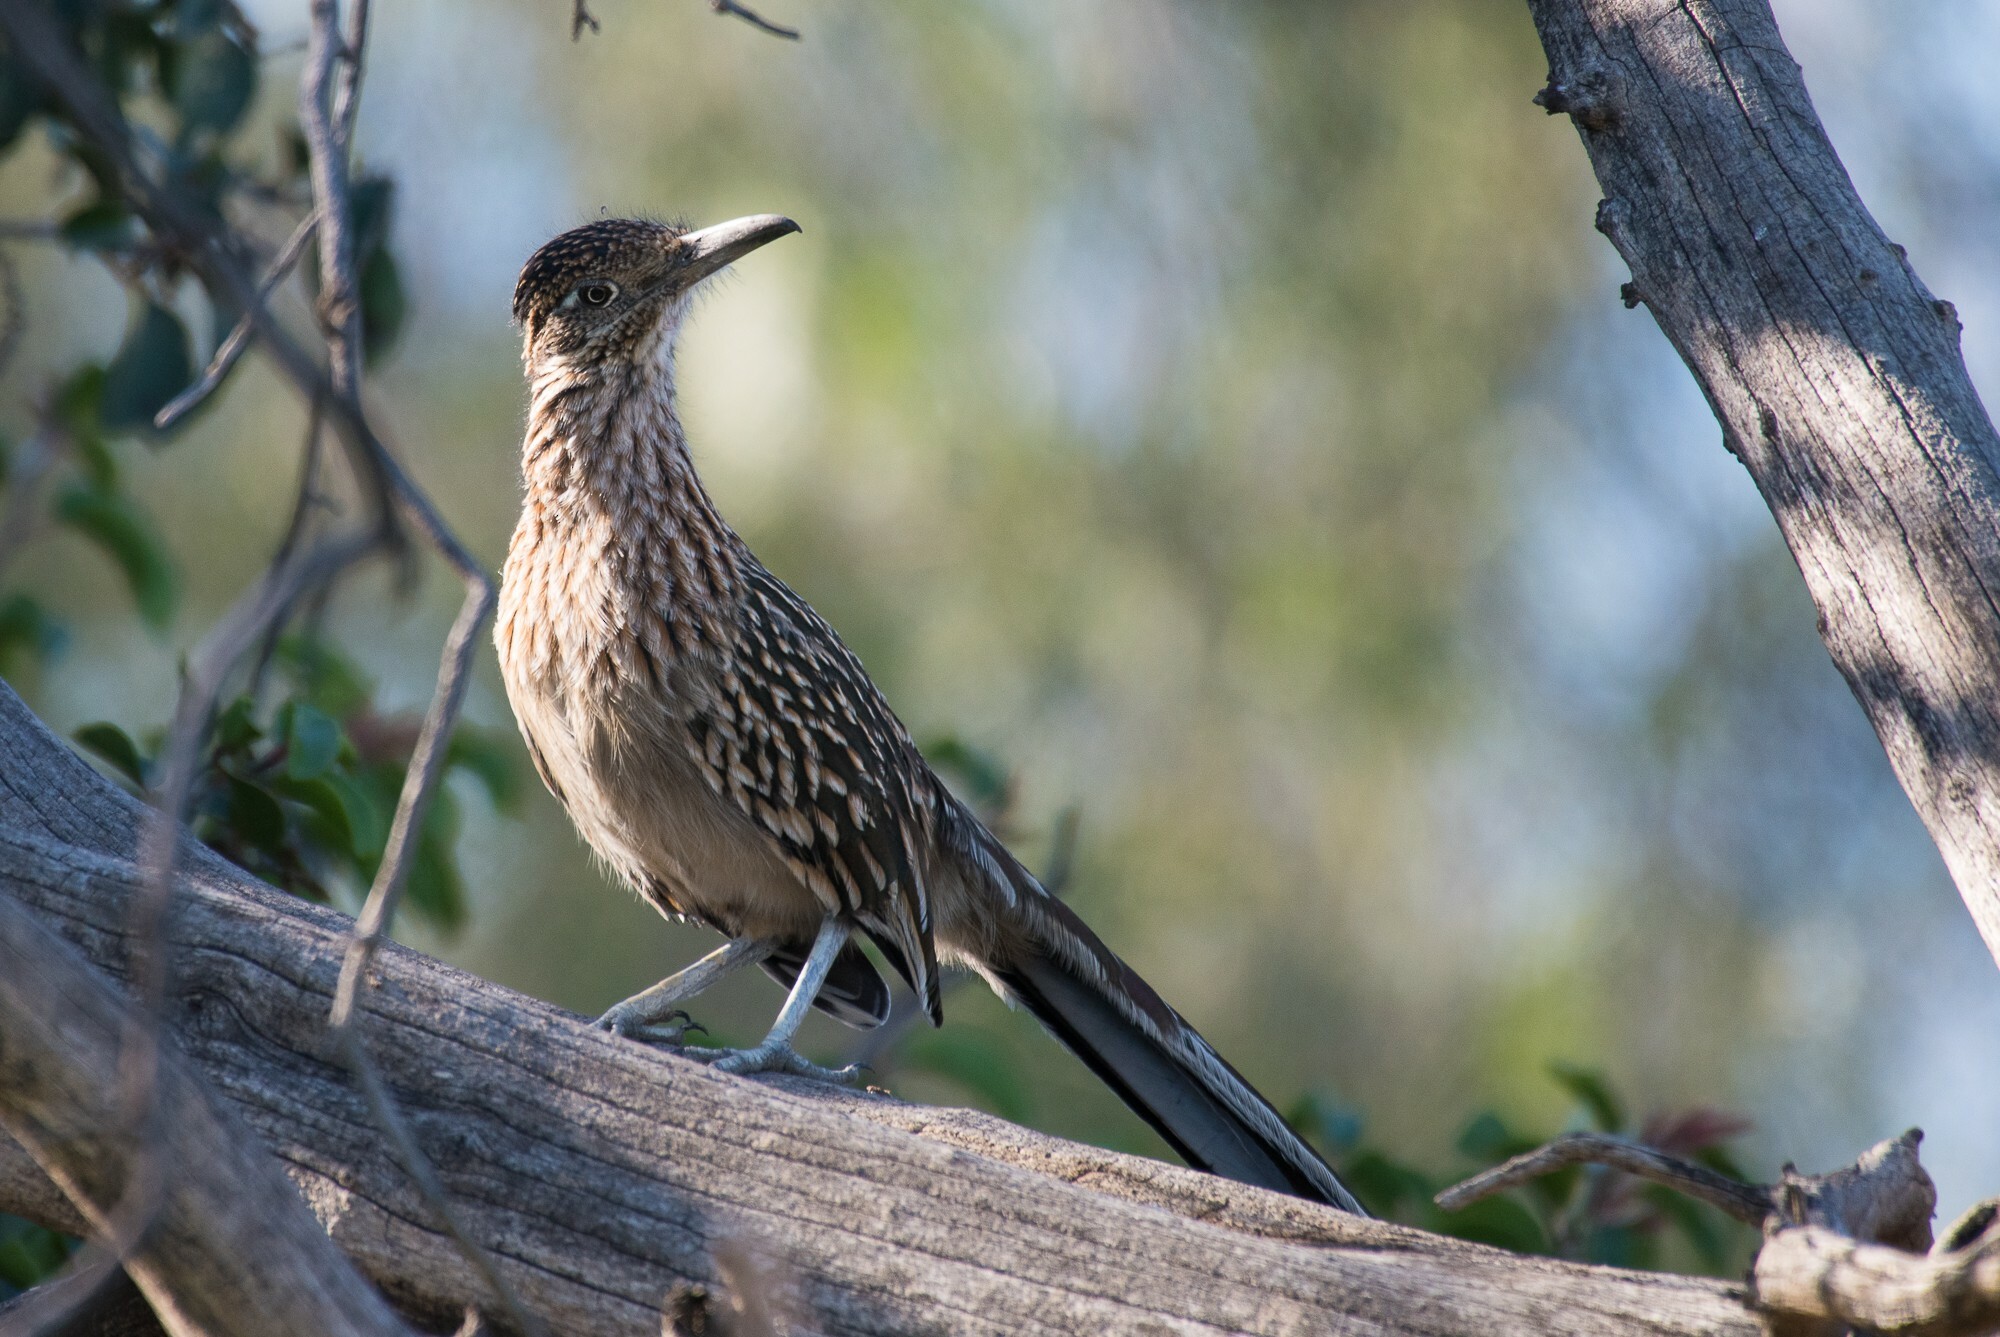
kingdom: Animalia
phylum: Chordata
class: Aves
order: Cuculiformes
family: Cuculidae
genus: Geococcyx
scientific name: Geococcyx californianus
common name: Greater roadrunner
